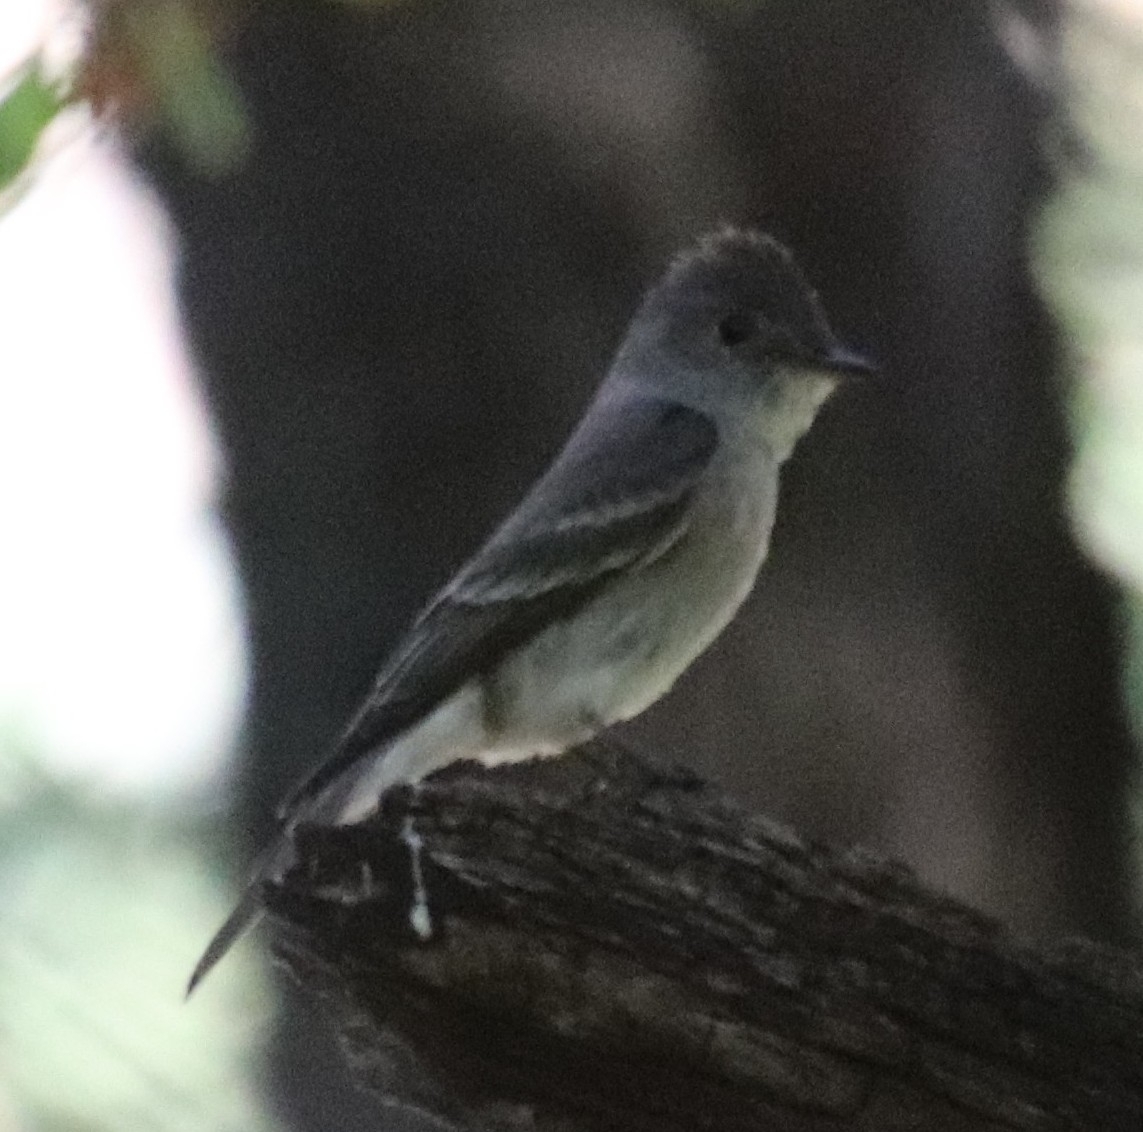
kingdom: Animalia
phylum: Chordata
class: Aves
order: Passeriformes
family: Tyrannidae
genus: Contopus
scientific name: Contopus sordidulus
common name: Western wood-pewee
